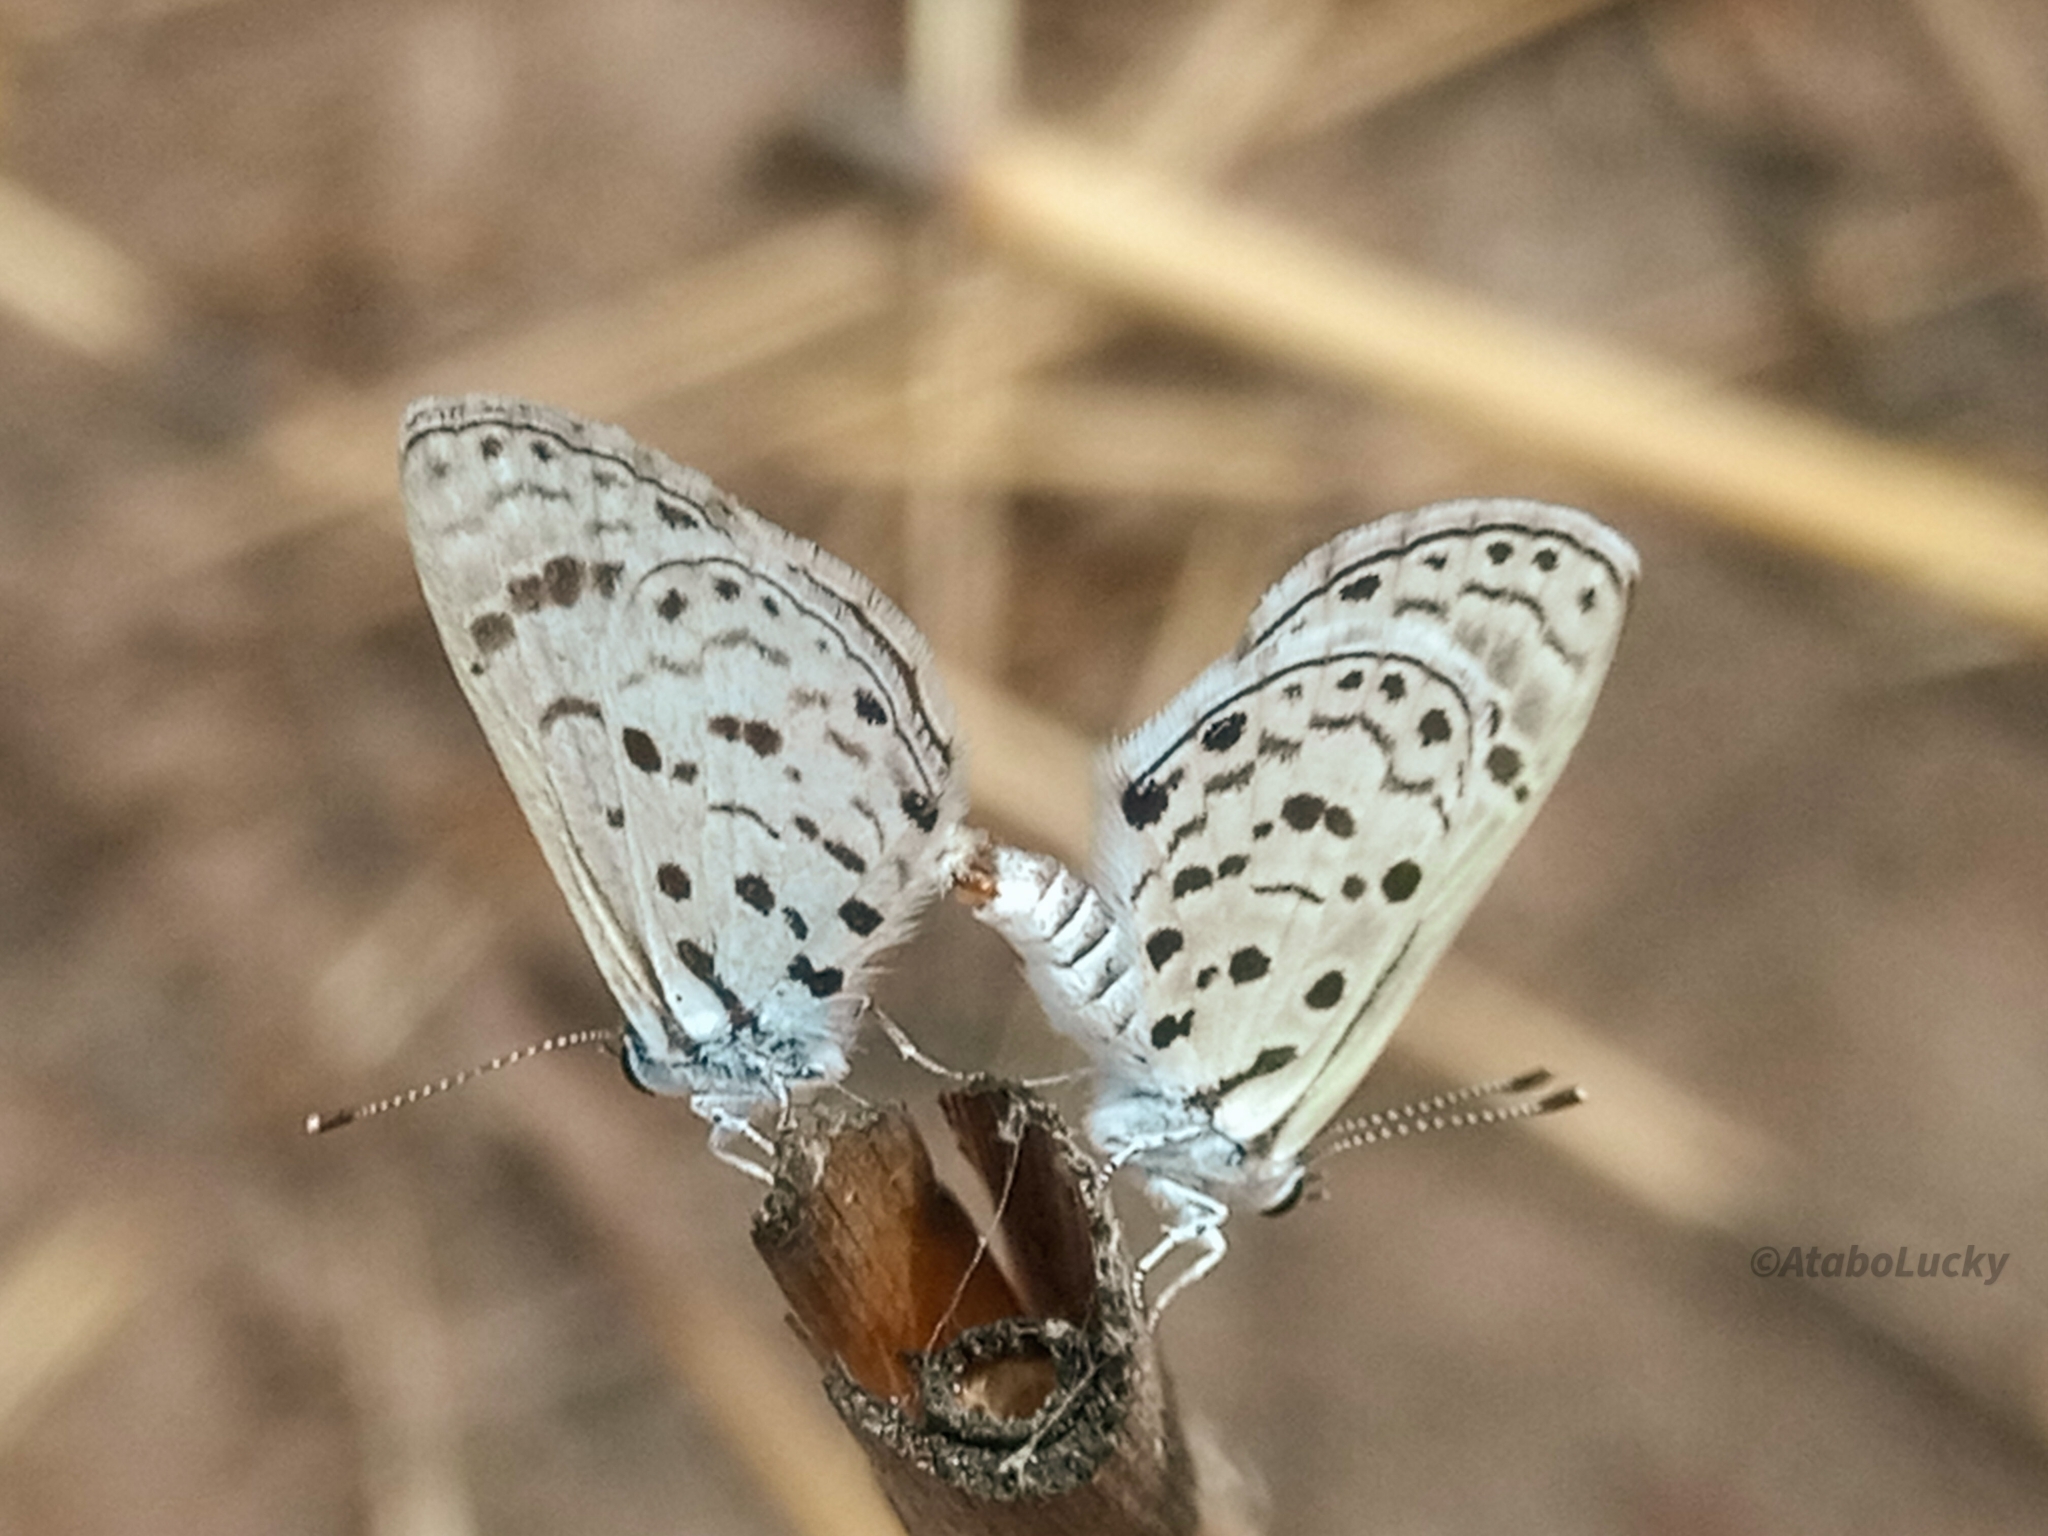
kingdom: Animalia
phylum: Arthropoda
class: Insecta
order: Lepidoptera
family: Lycaenidae
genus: Azanus
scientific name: Azanus moriqua
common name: Thorn-tree babul blue
